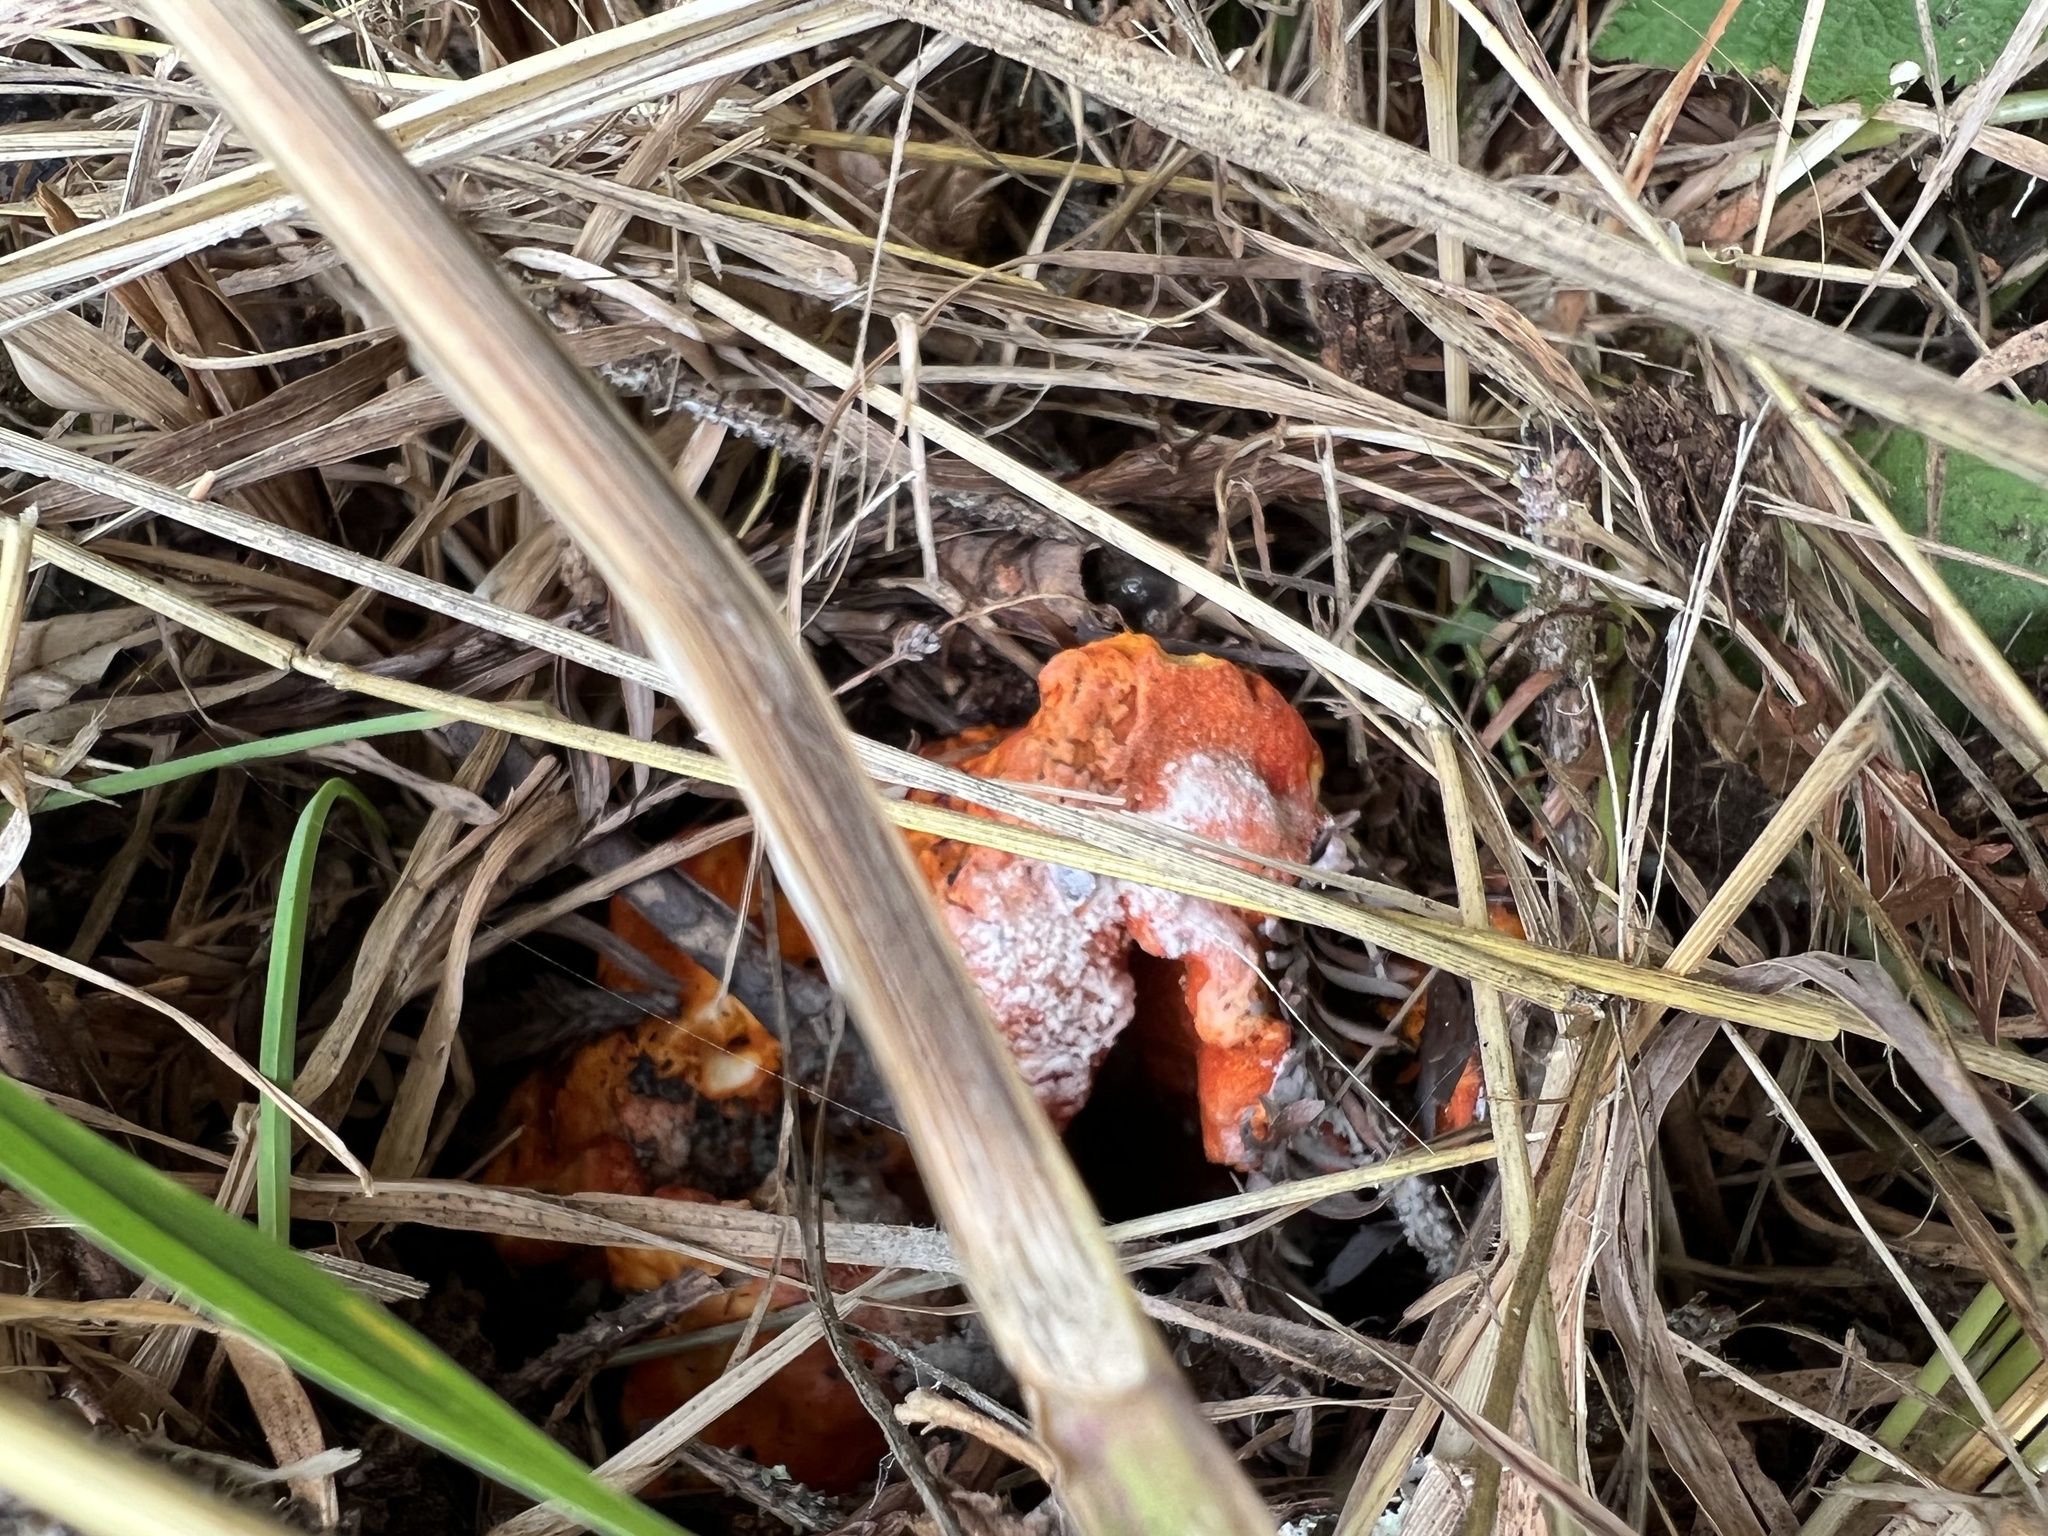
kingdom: Fungi
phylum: Ascomycota
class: Sordariomycetes
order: Hypocreales
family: Hypocreaceae
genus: Hypomyces
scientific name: Hypomyces lactifluorum
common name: Lobster mushroom
